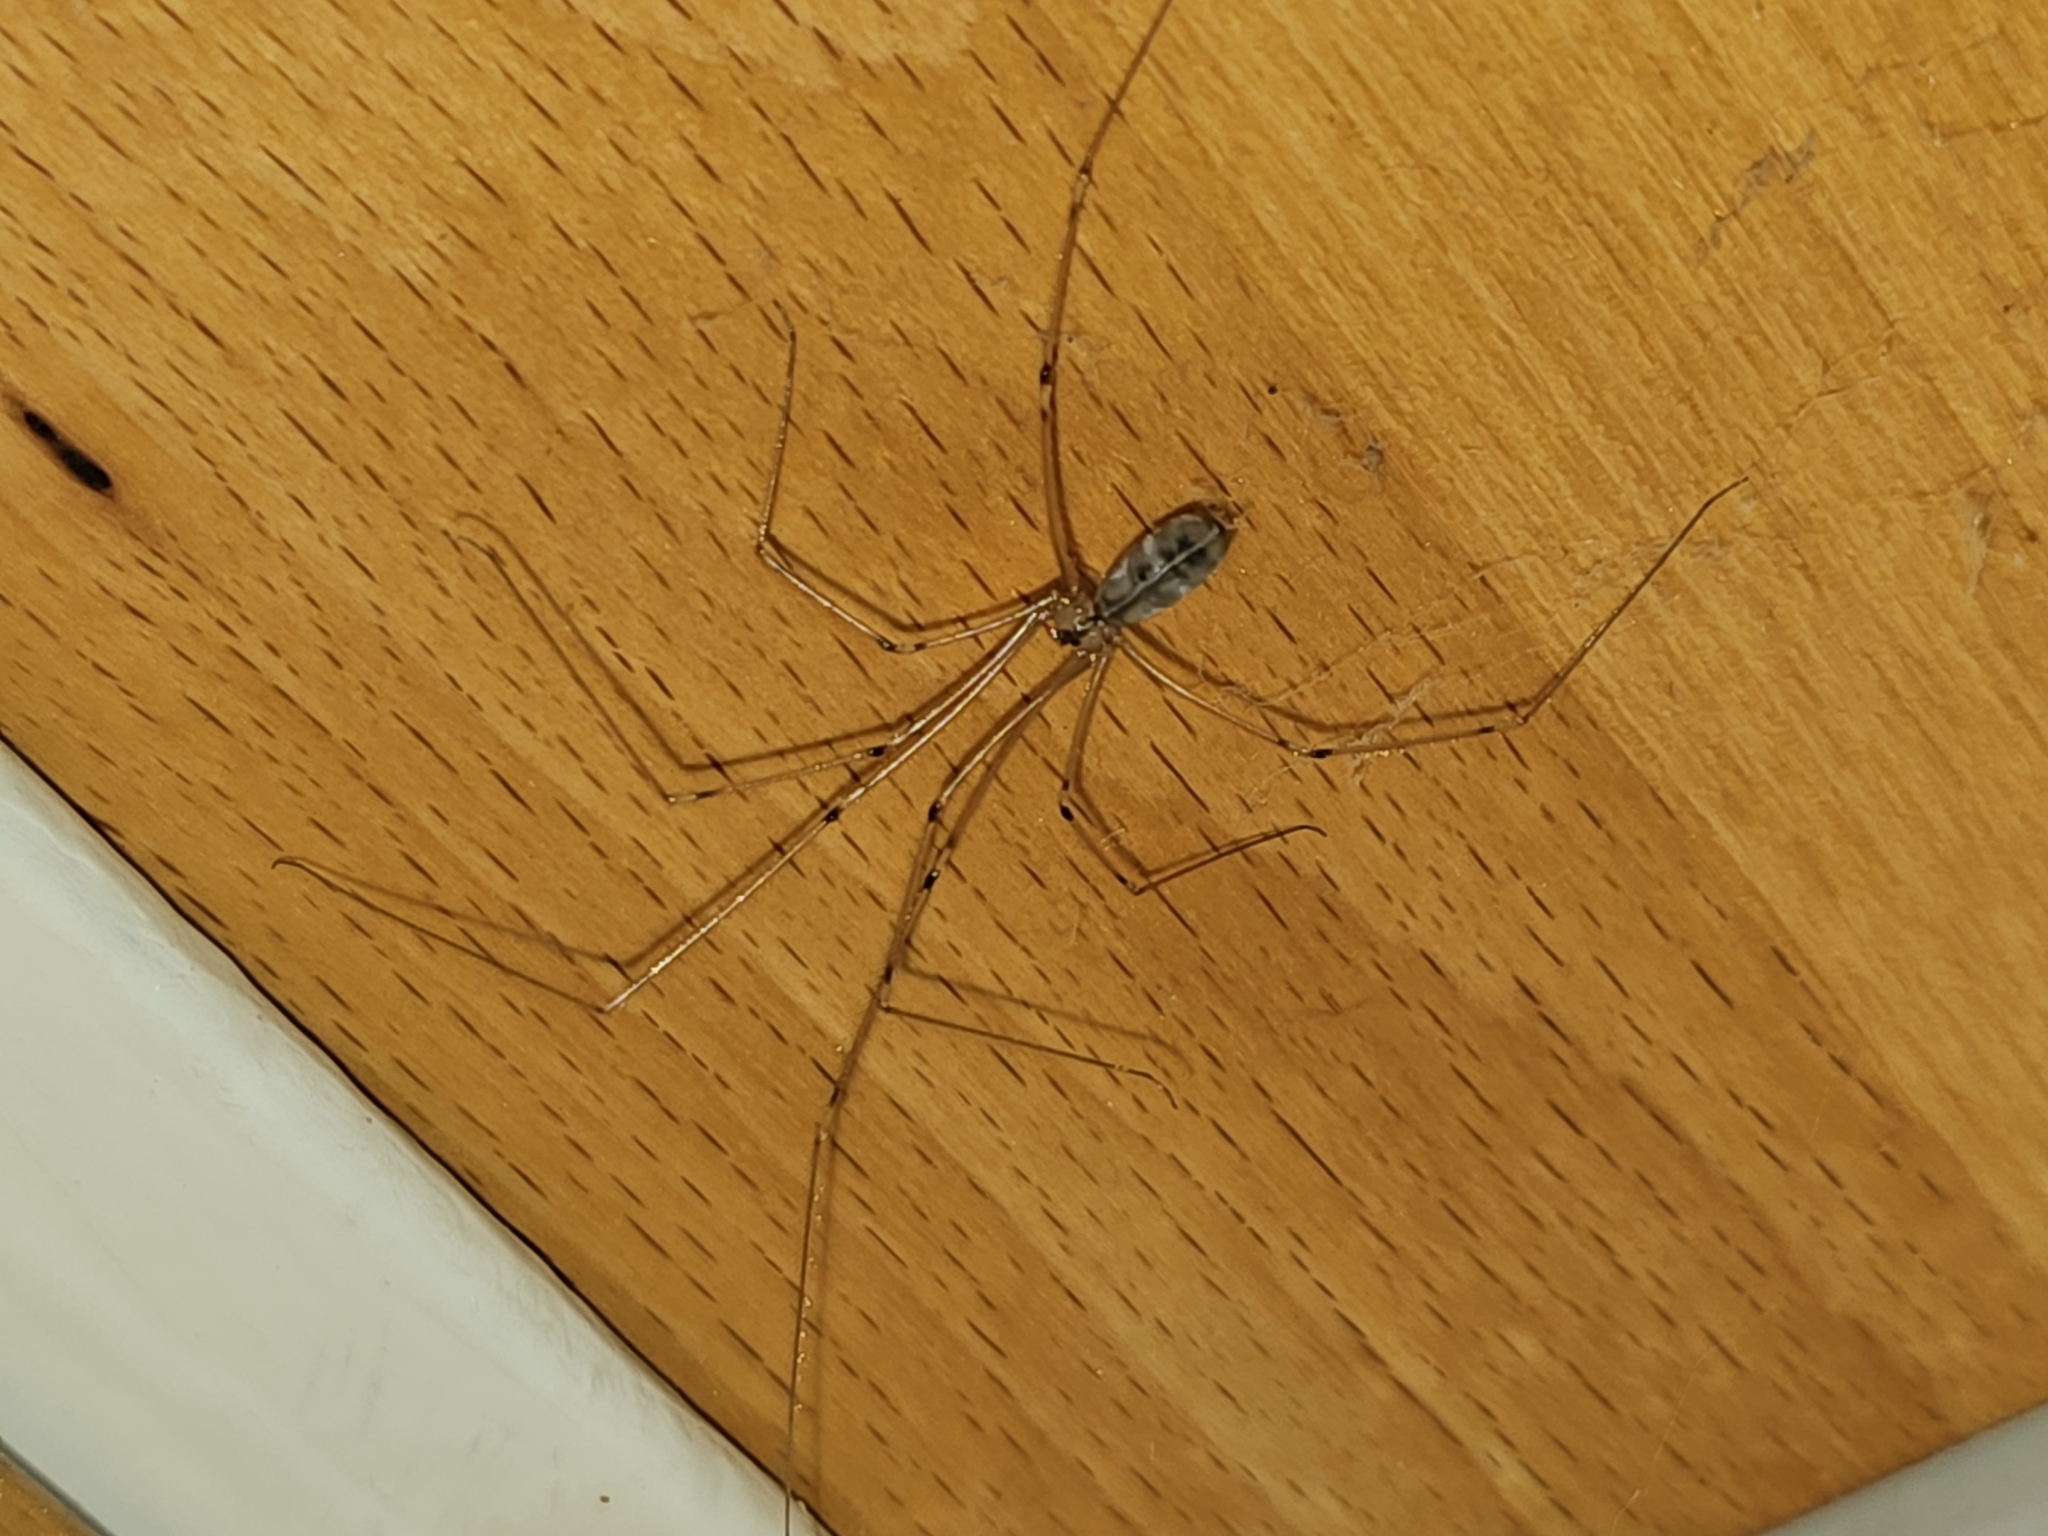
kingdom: Animalia
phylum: Arthropoda
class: Arachnida
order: Araneae
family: Pholcidae
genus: Pholcus
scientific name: Pholcus phalangioides
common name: Longbodied cellar spider
